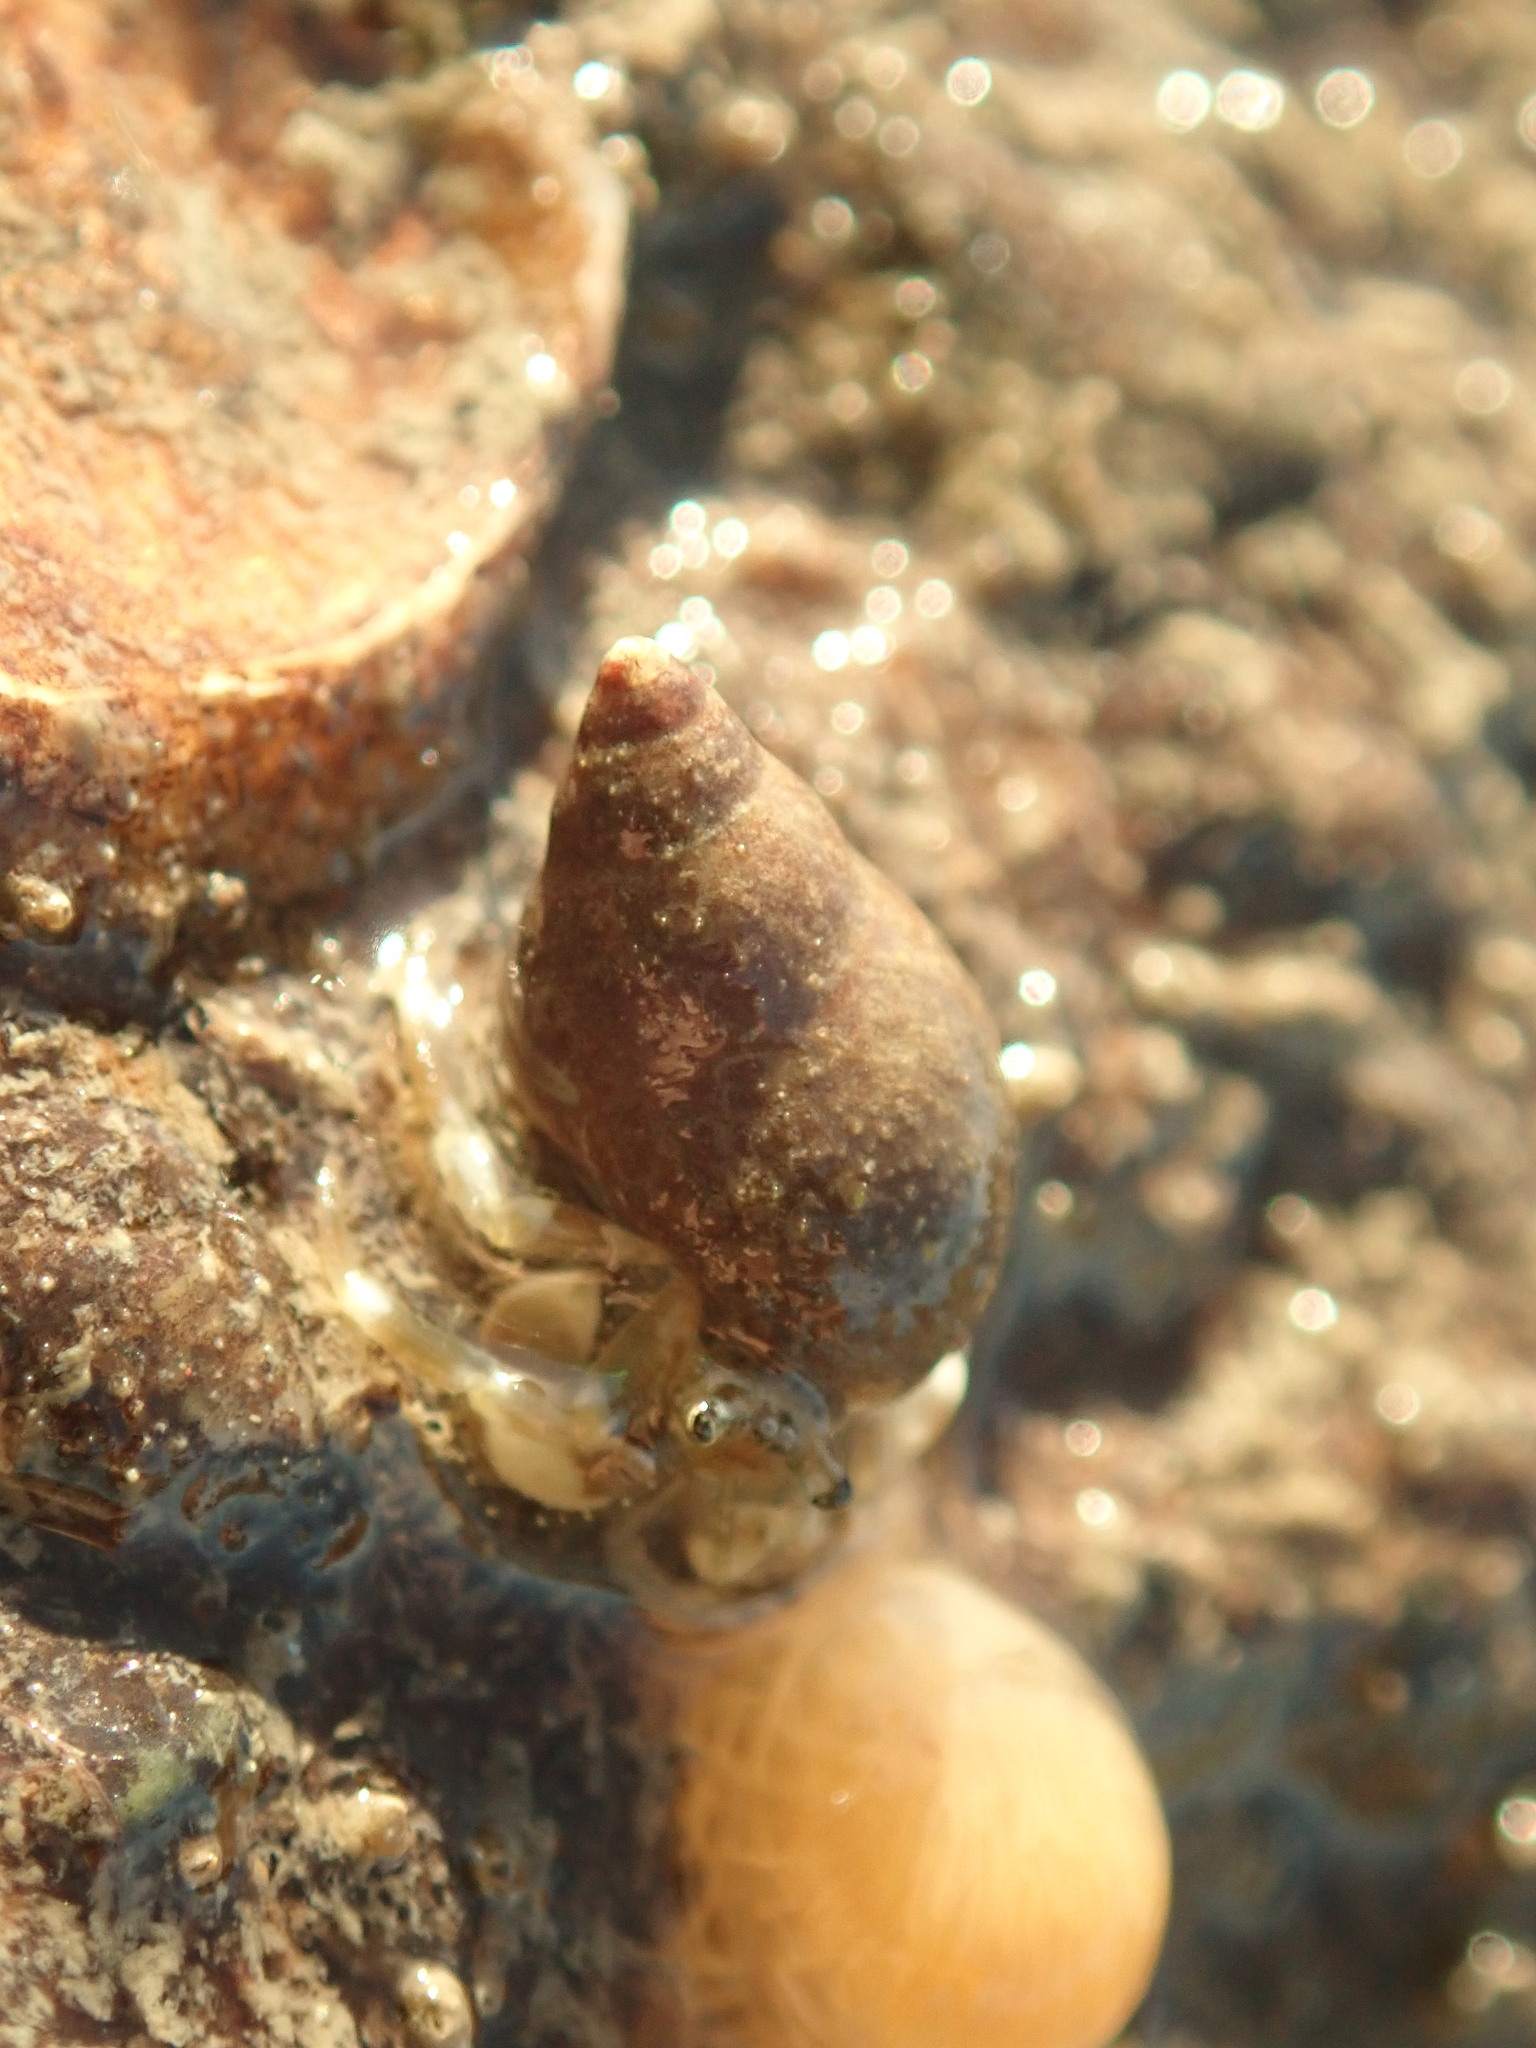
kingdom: Animalia
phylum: Arthropoda
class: Malacostraca
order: Decapoda
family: Paguridae
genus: Pagurus
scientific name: Pagurus hirsutiusculus
